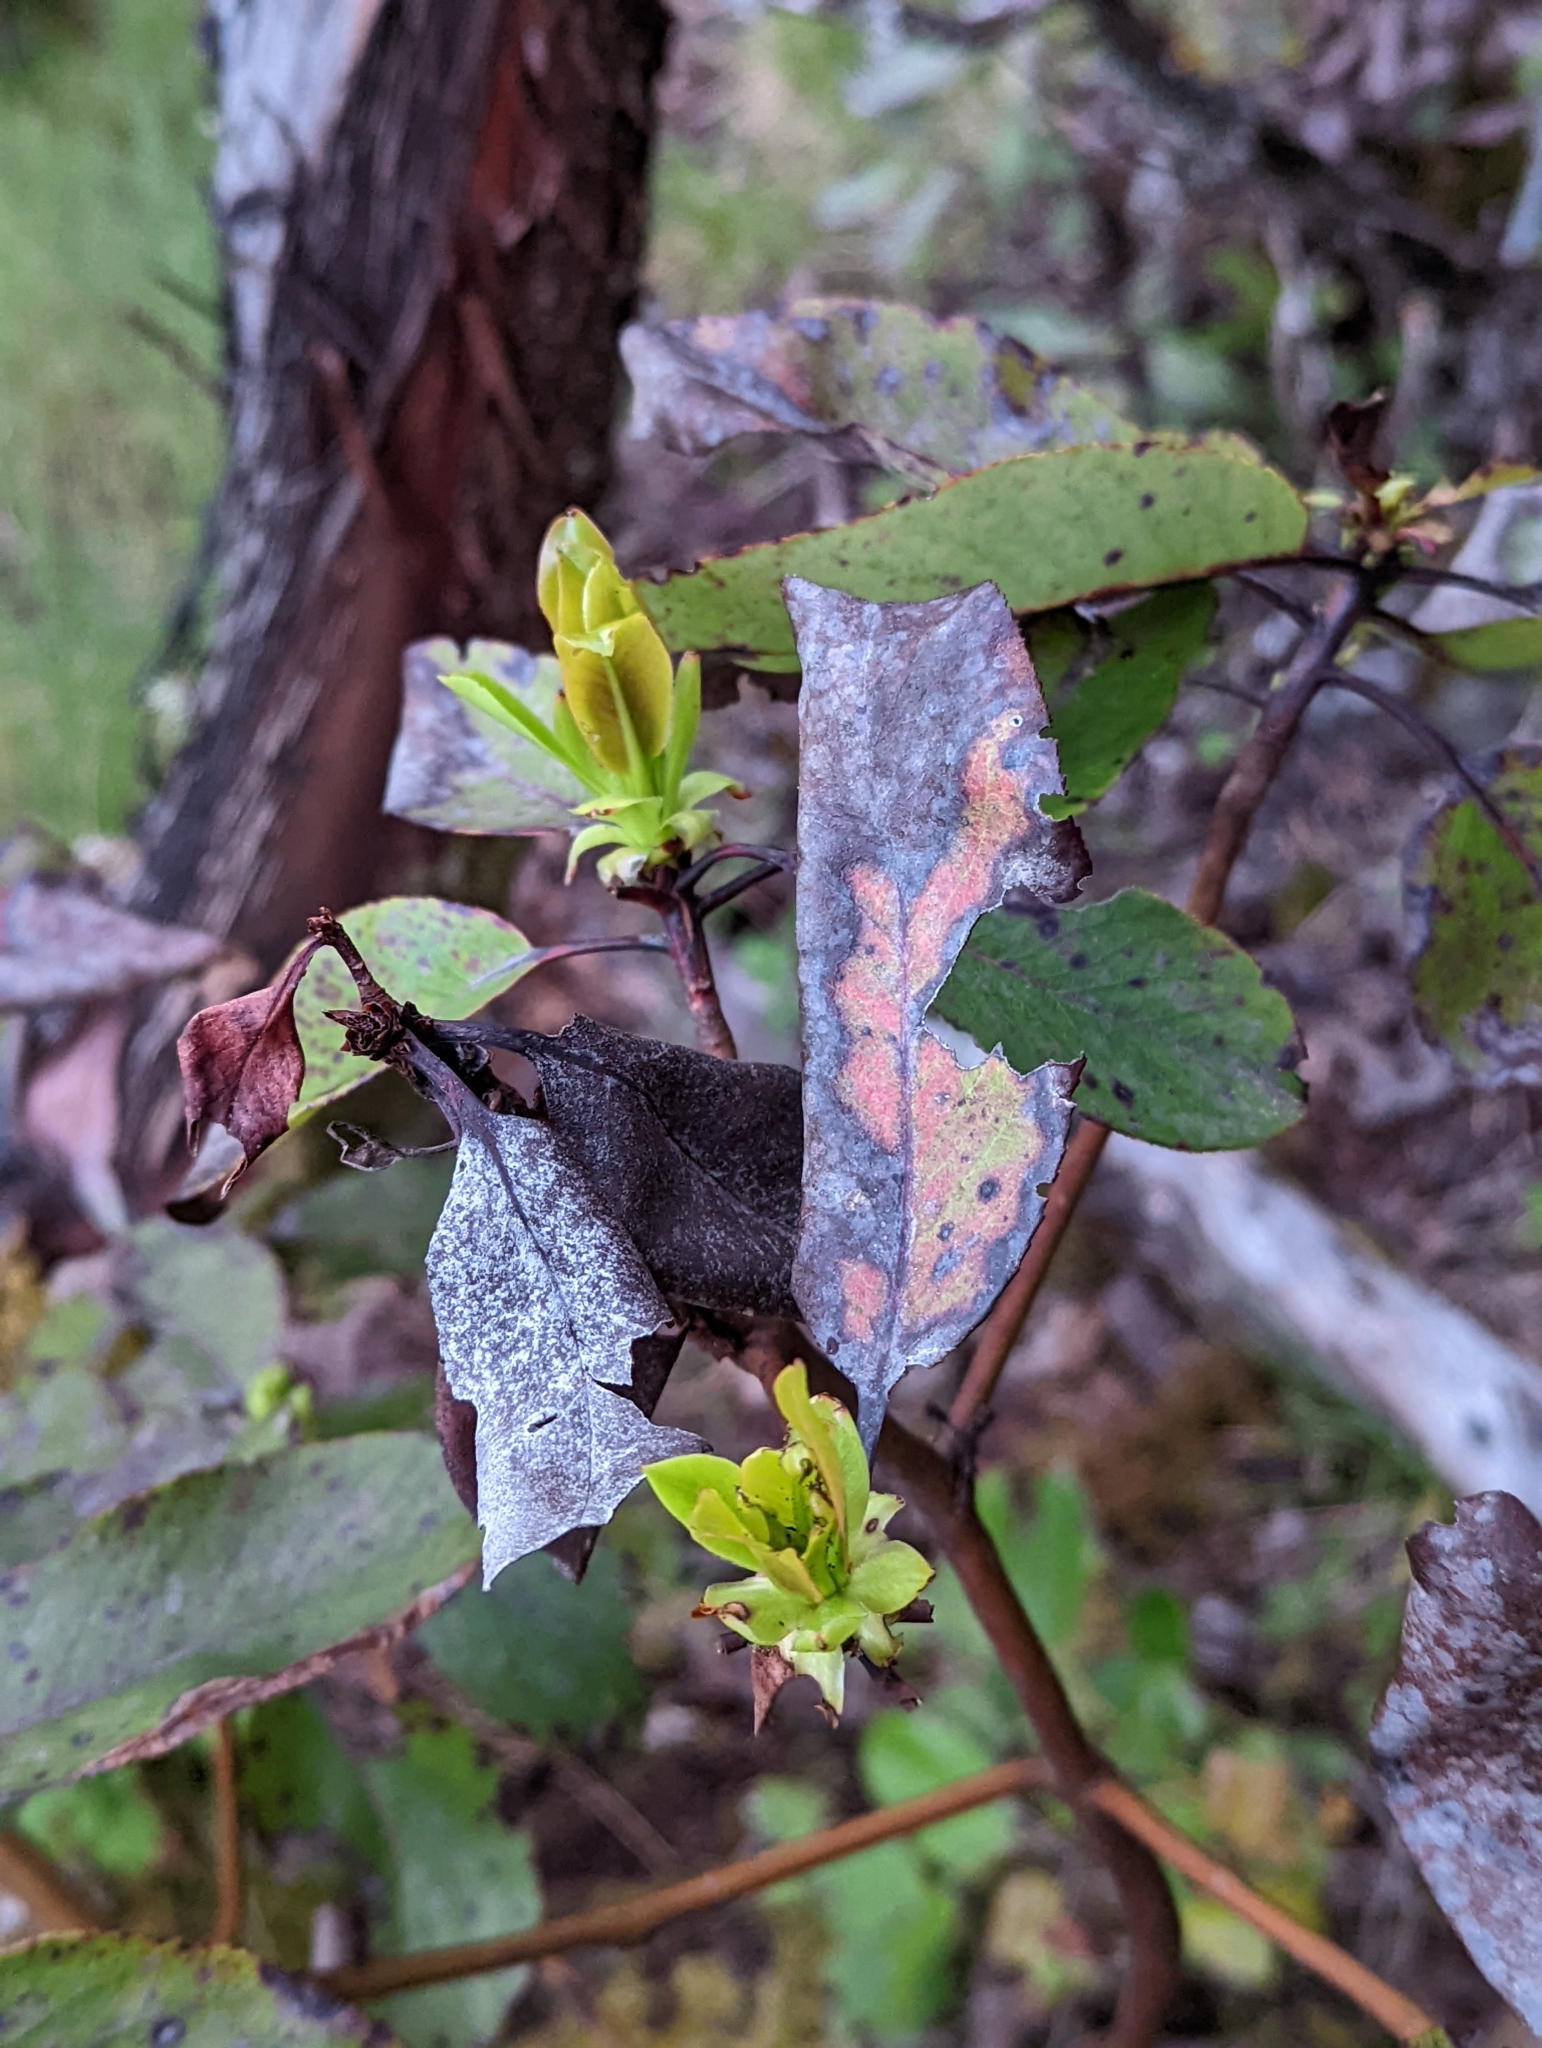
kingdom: Plantae
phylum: Tracheophyta
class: Magnoliopsida
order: Ericales
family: Ericaceae
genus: Arbutus
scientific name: Arbutus menziesii
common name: Pacific madrone
